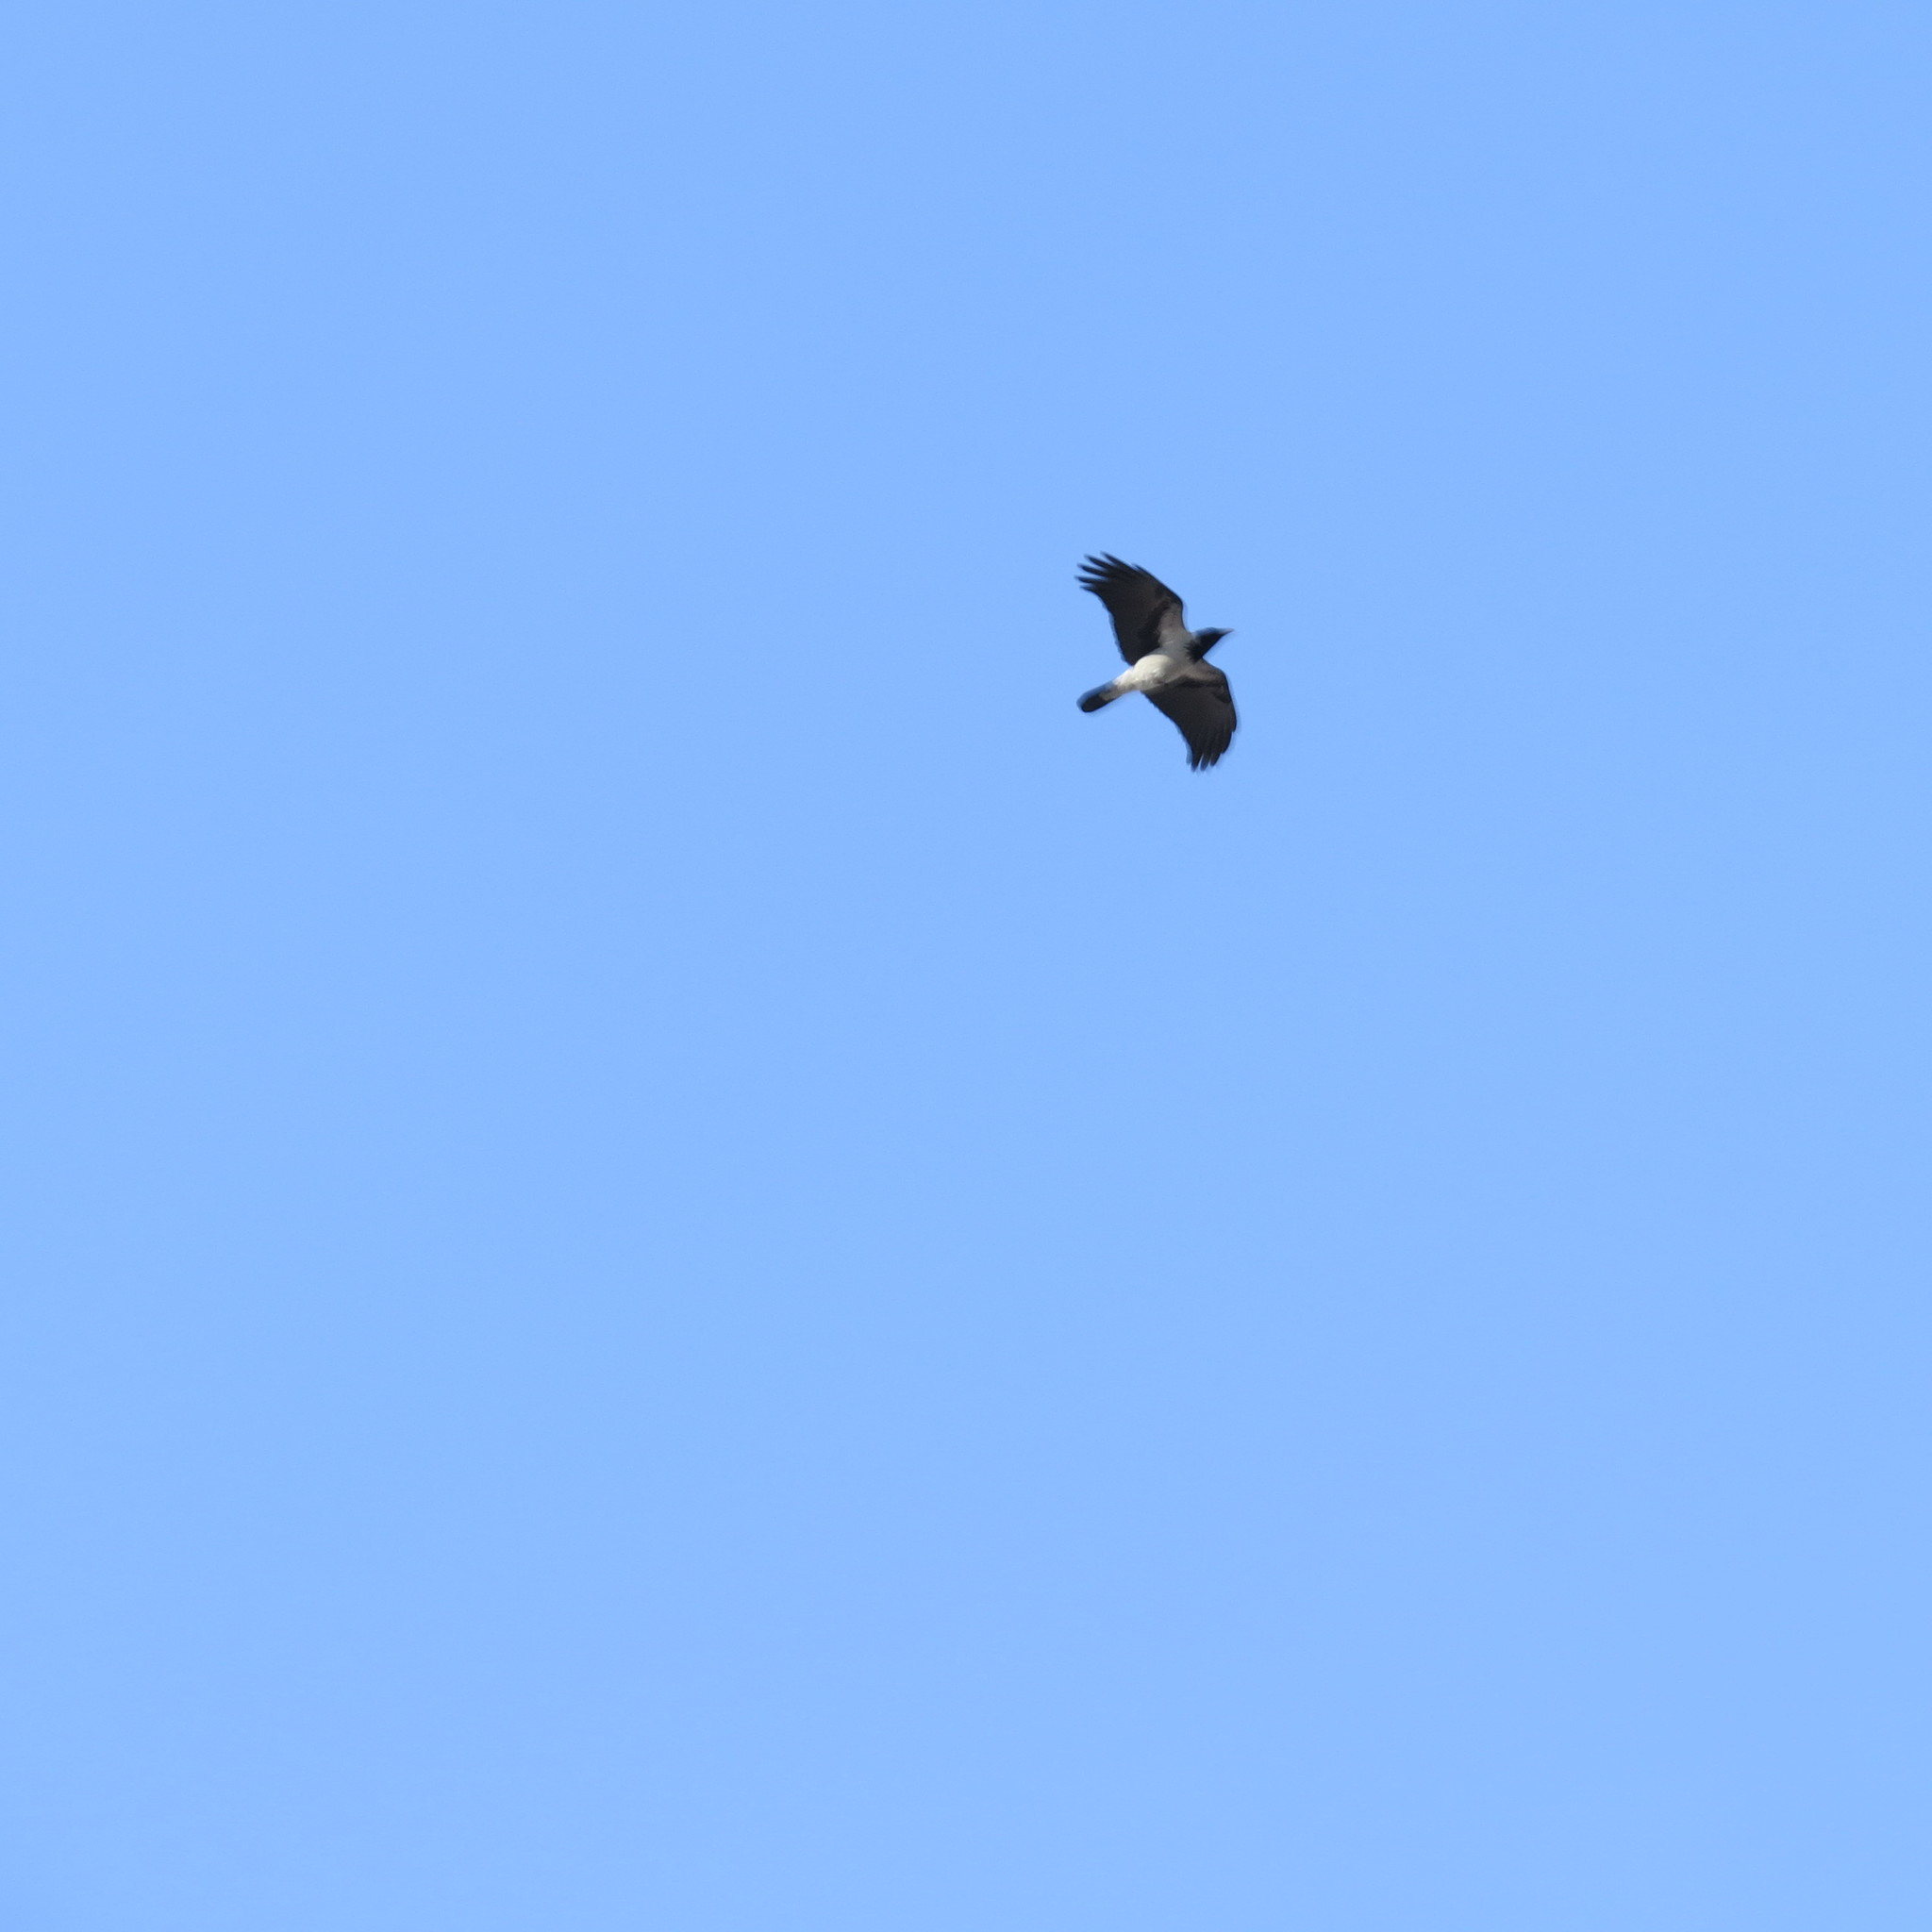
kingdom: Animalia
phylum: Chordata
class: Aves
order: Passeriformes
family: Corvidae
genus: Corvus
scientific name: Corvus cornix
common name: Hooded crow
